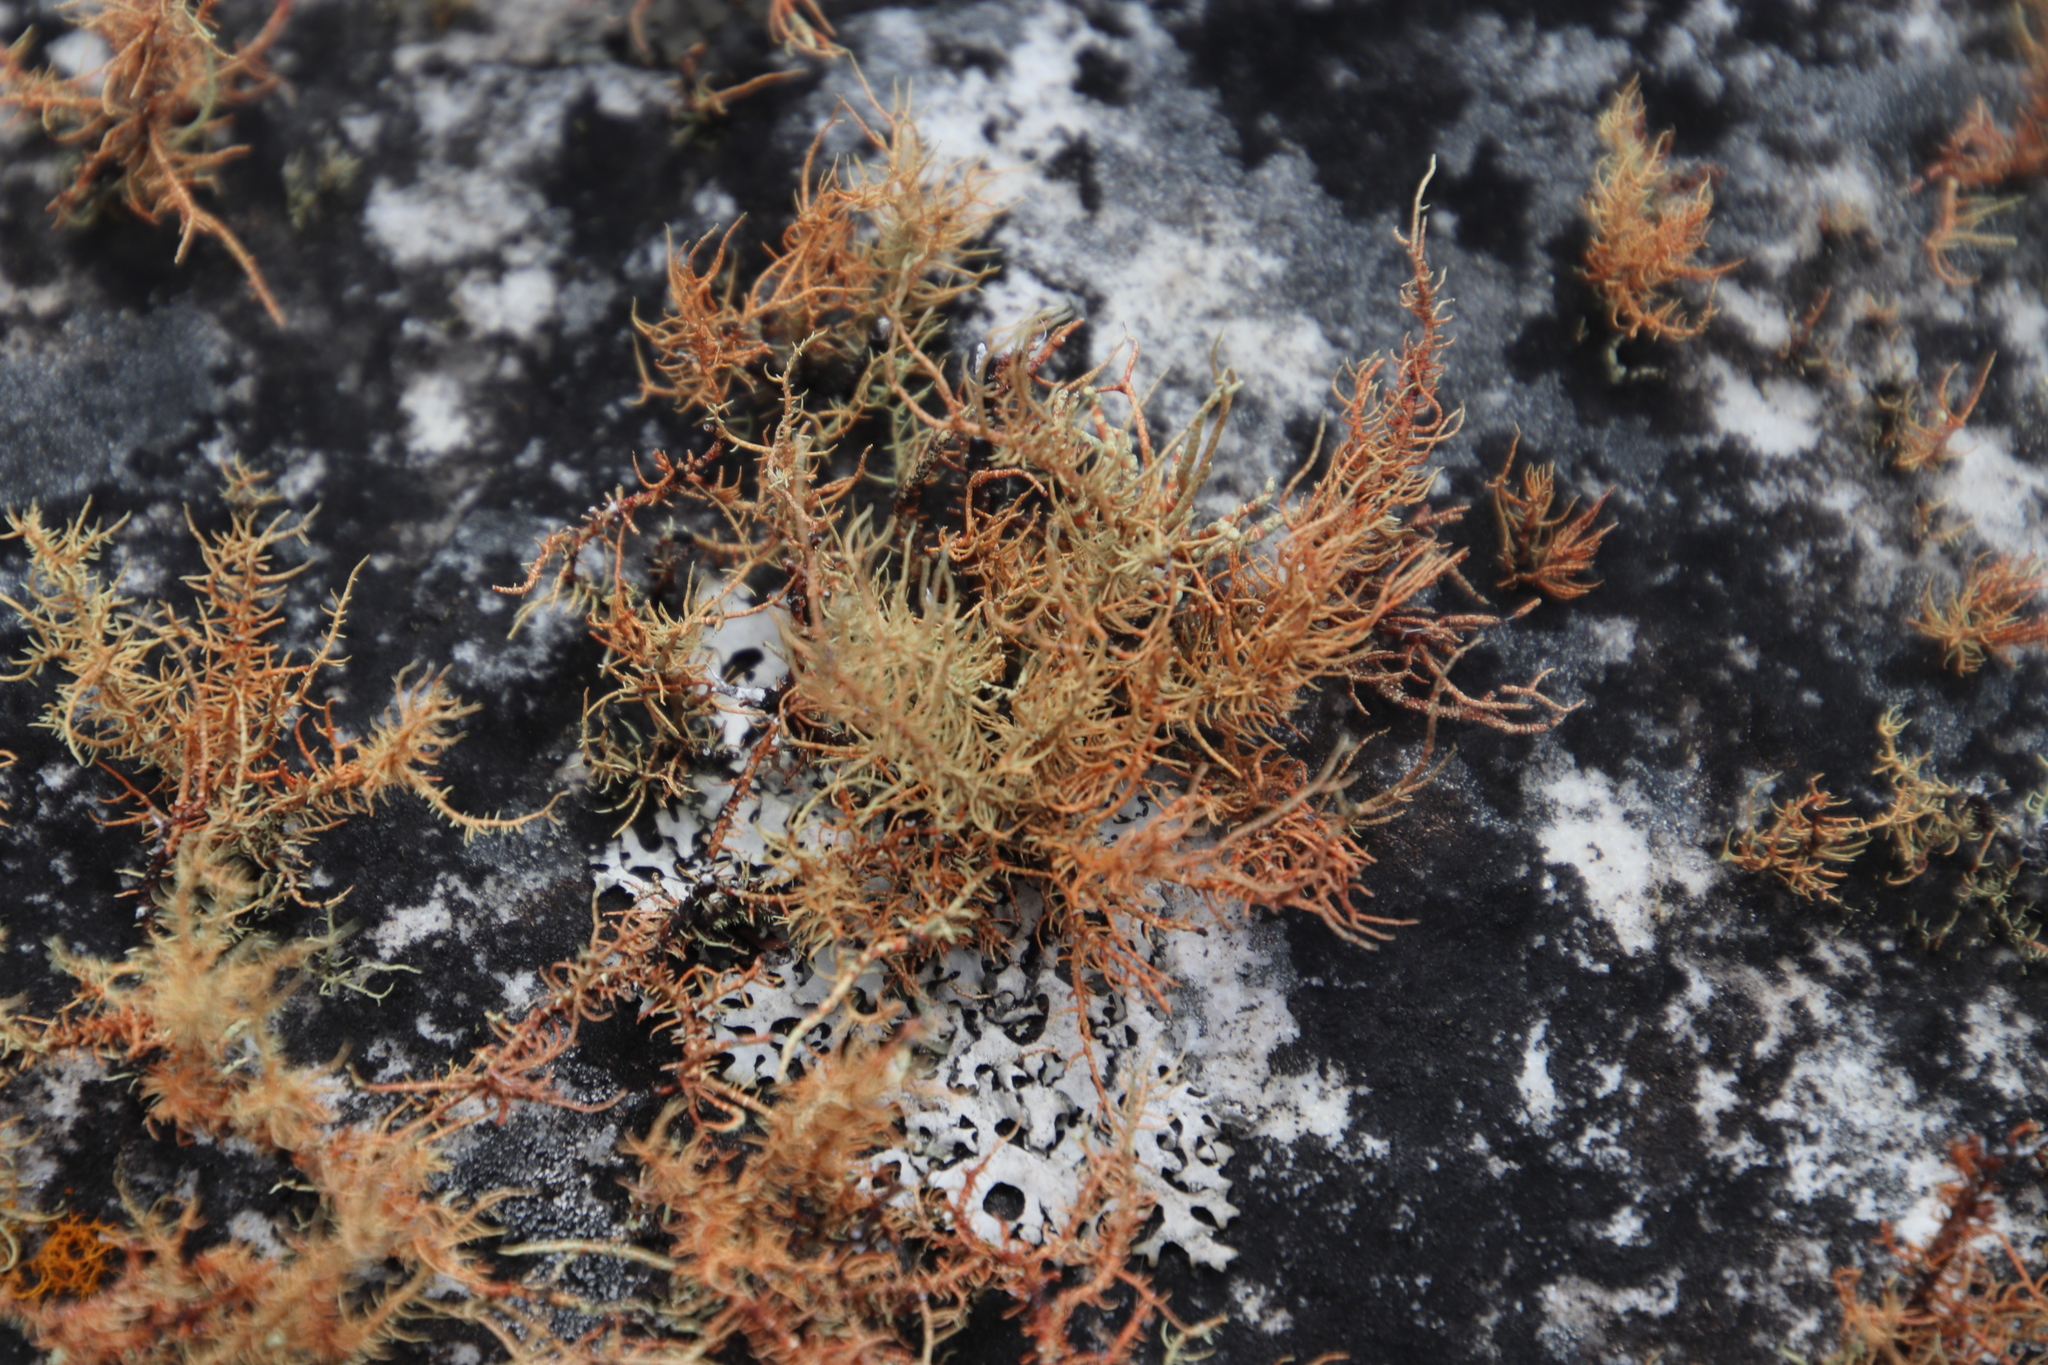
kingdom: Fungi
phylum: Ascomycota
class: Lecanoromycetes
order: Lecanorales
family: Parmeliaceae
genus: Usnea
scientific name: Usnea maculata
